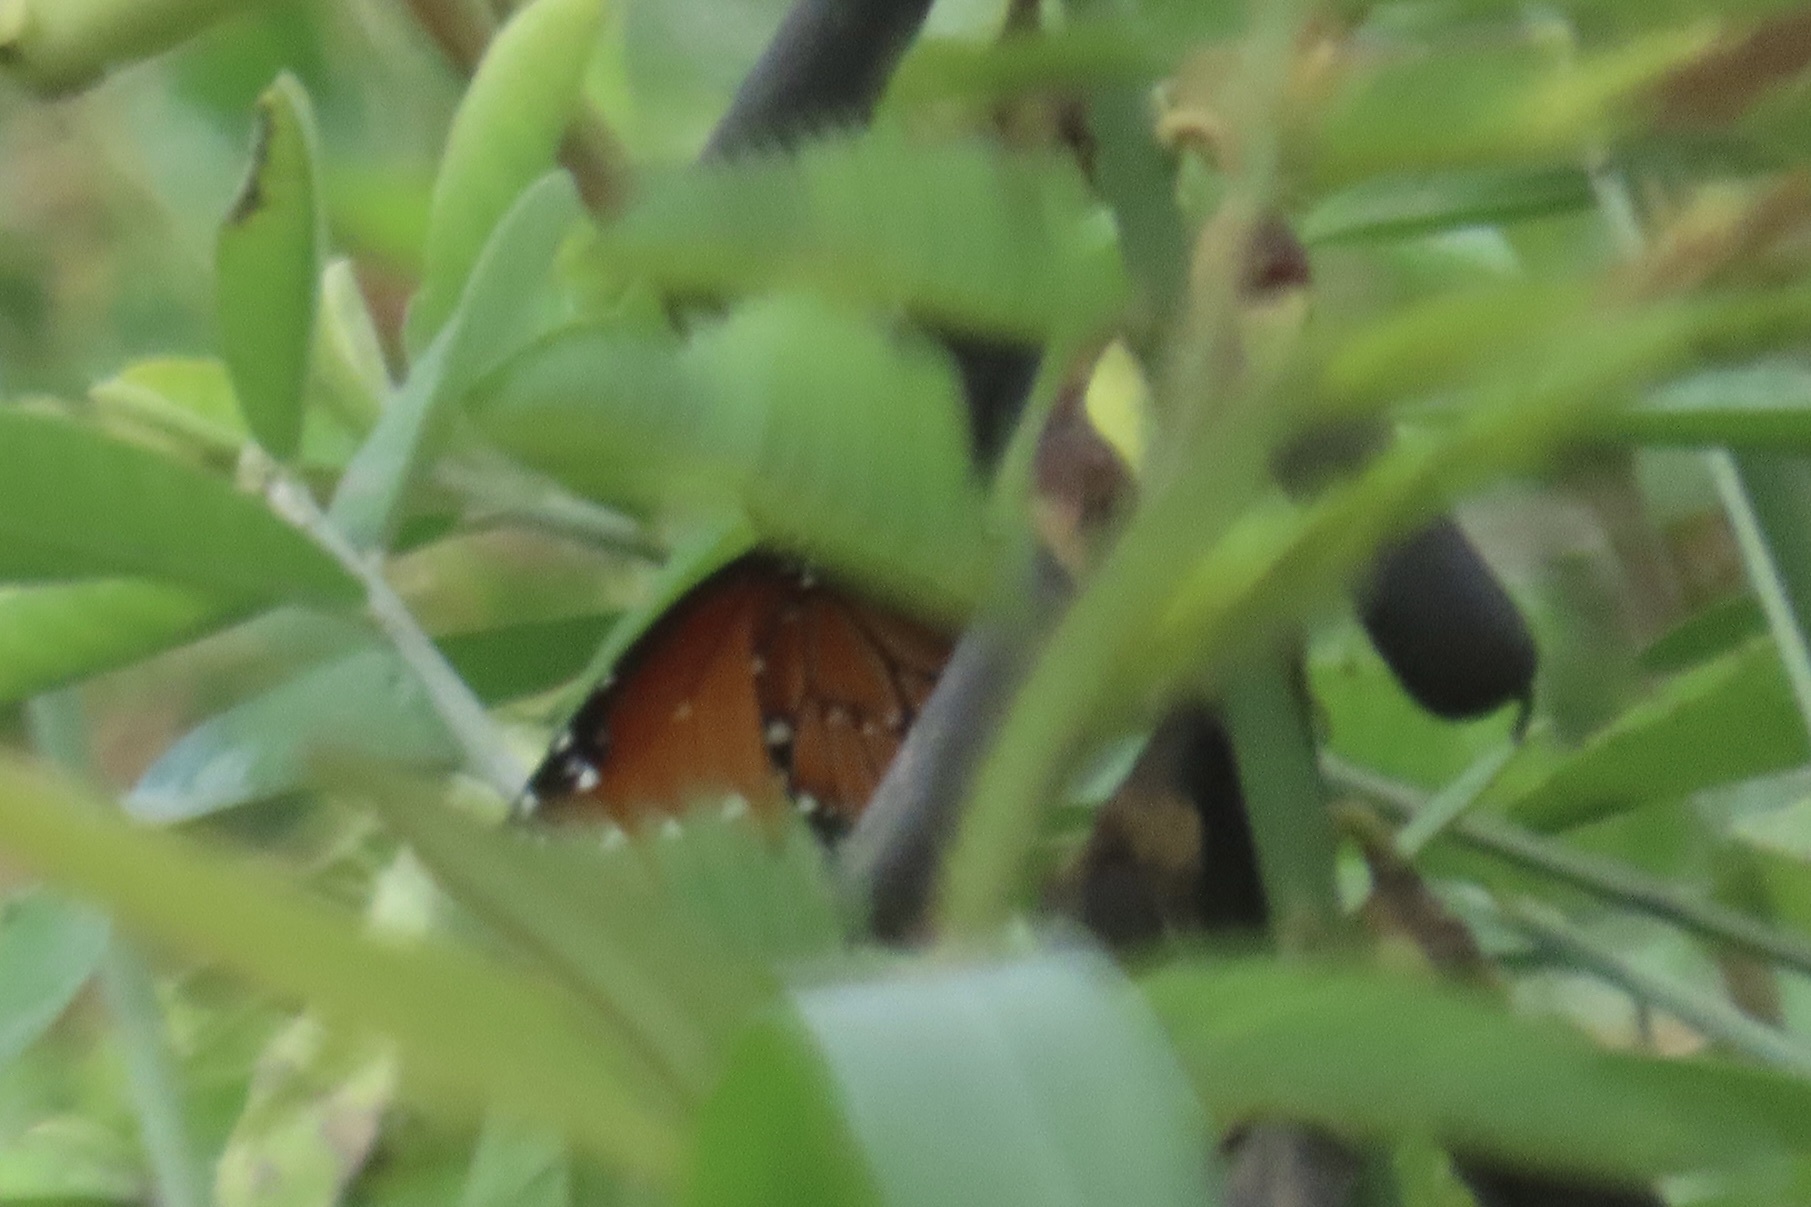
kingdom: Animalia
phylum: Arthropoda
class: Insecta
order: Lepidoptera
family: Nymphalidae
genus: Danaus
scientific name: Danaus gilippus
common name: Queen
